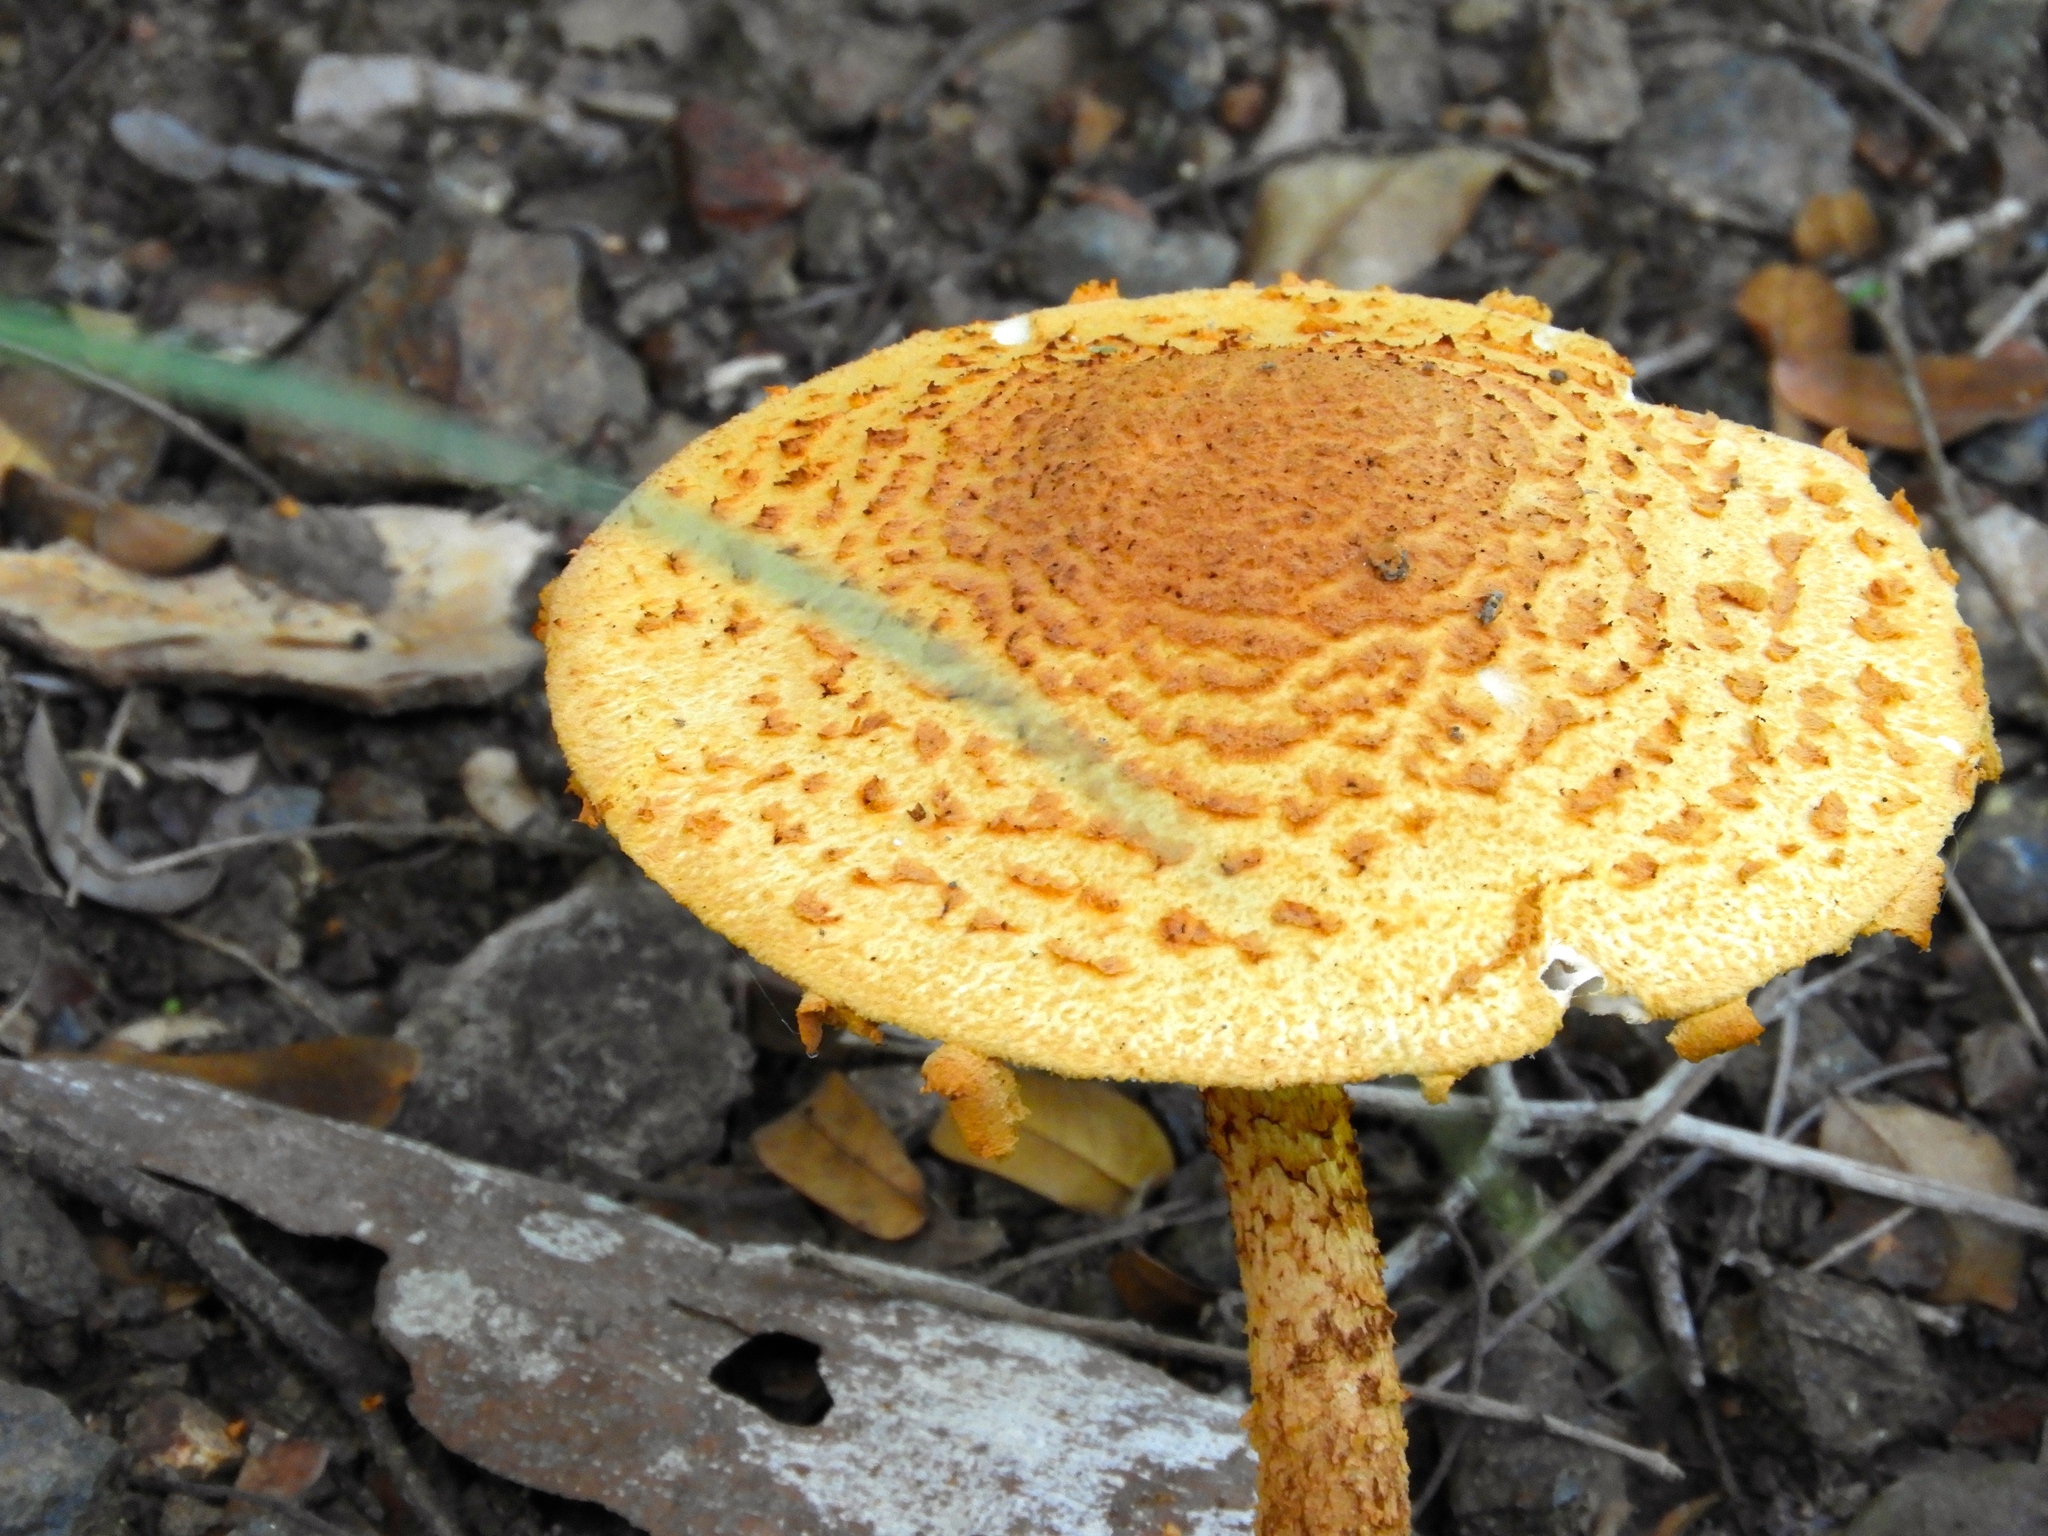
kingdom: Fungi
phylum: Basidiomycota
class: Agaricomycetes
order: Agaricales
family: Amanitaceae
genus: Aspidella
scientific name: Aspidella aureofloccosa
